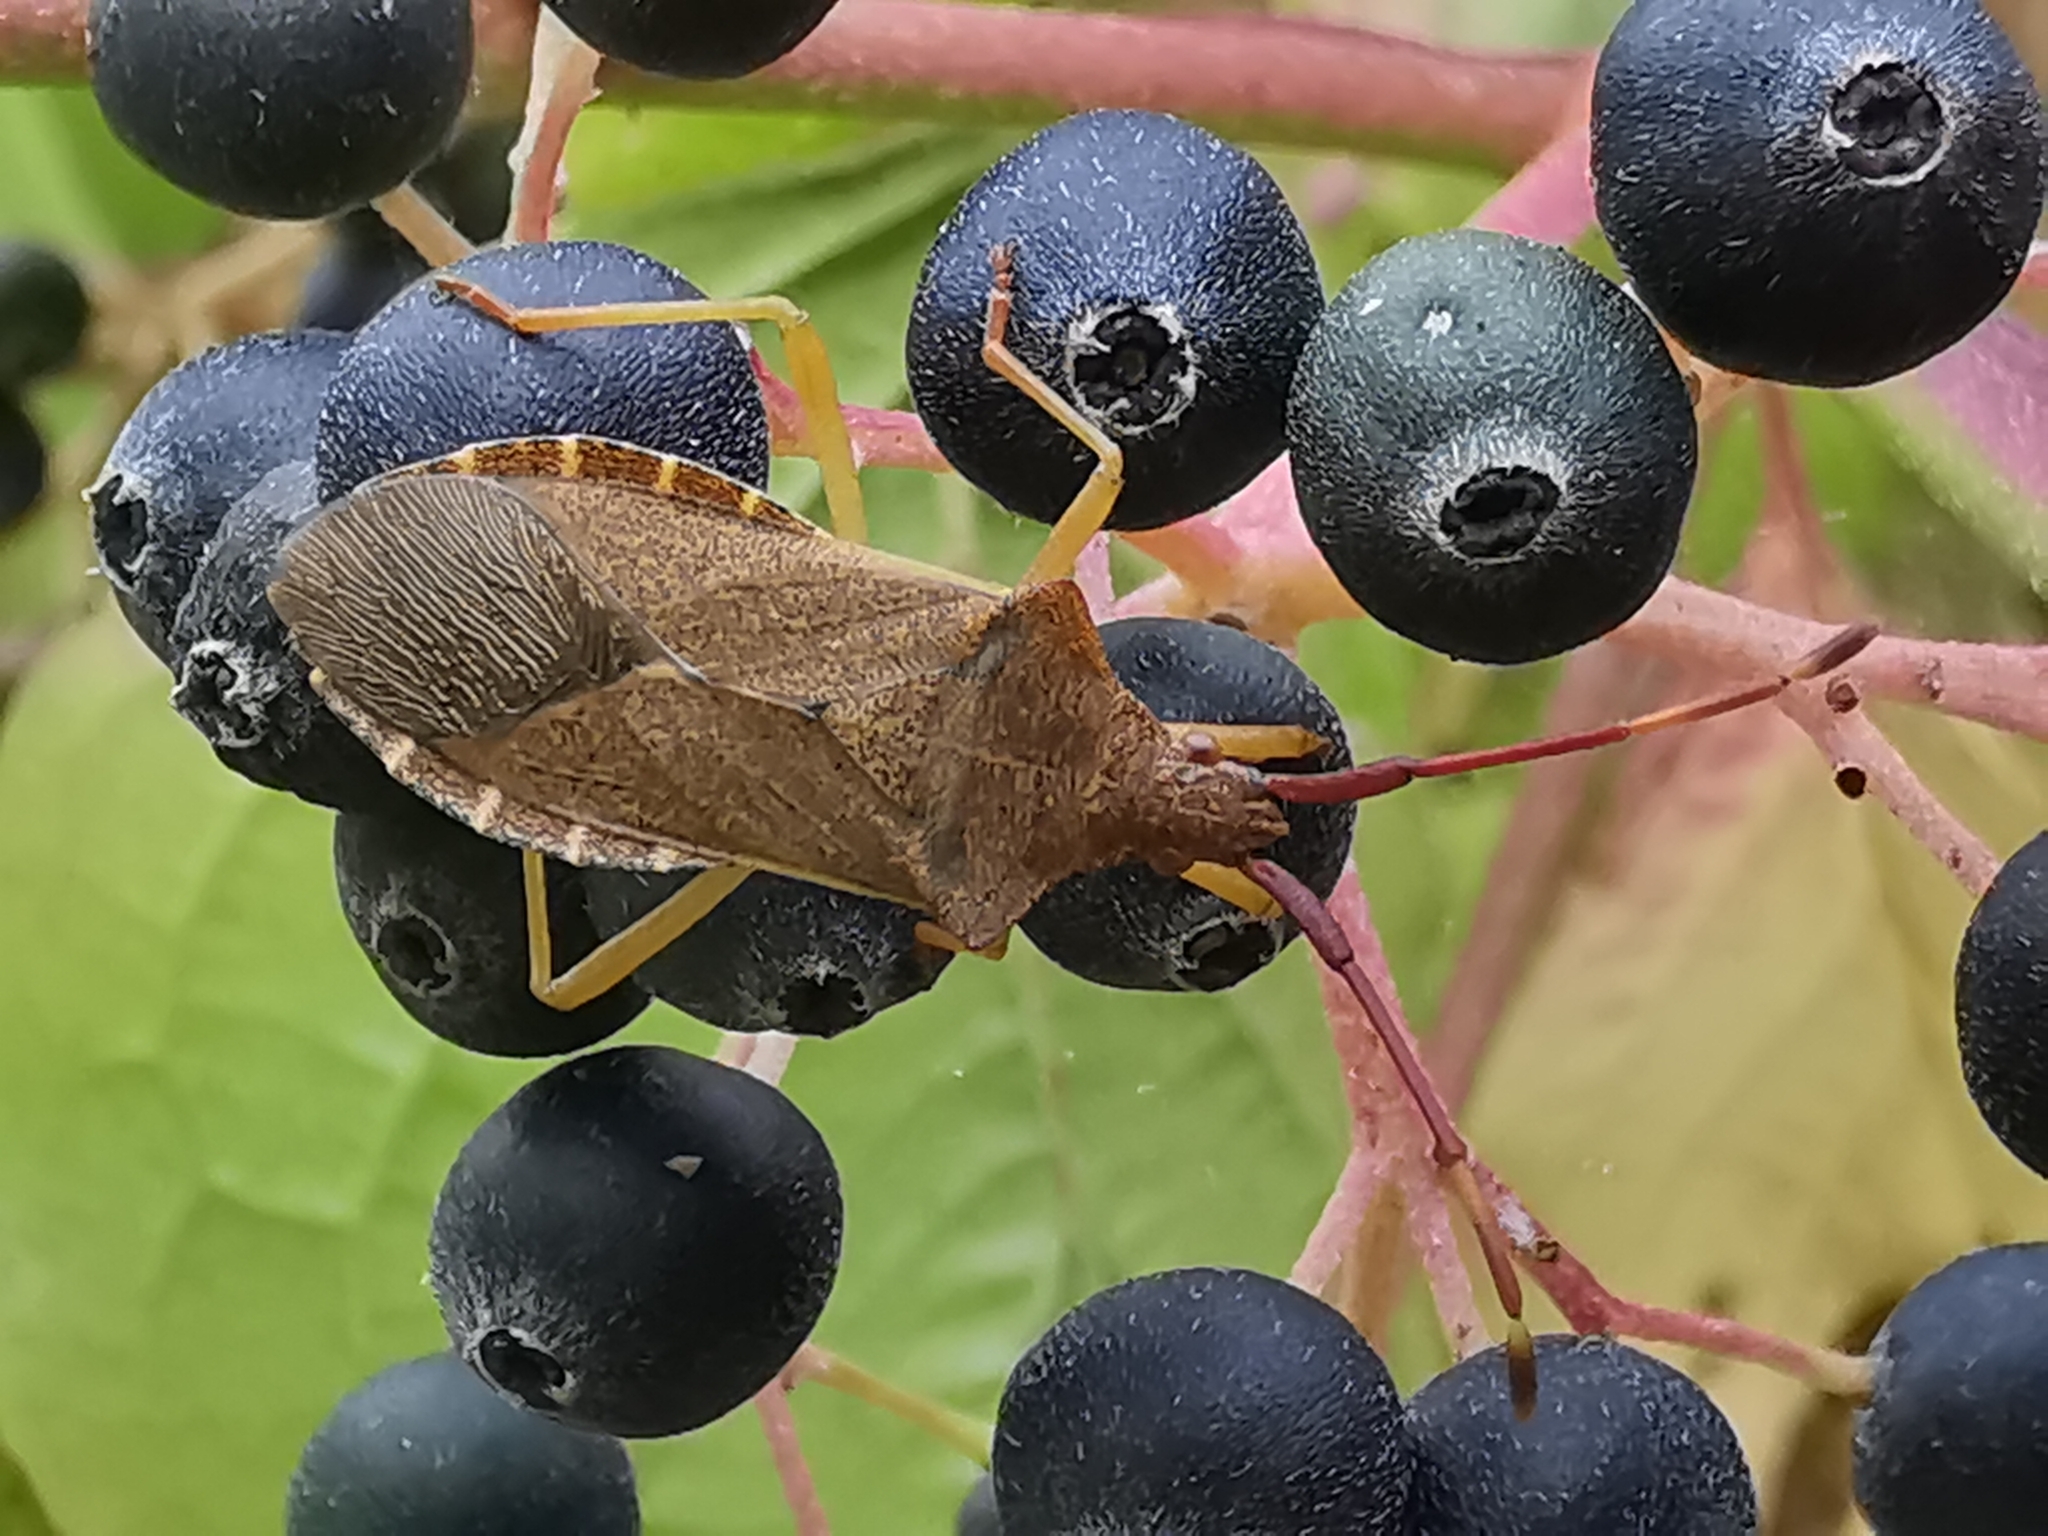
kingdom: Animalia
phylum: Arthropoda
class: Insecta
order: Hemiptera
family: Coreidae
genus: Gonocerus
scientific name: Gonocerus acuteangulatus
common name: Box bug
